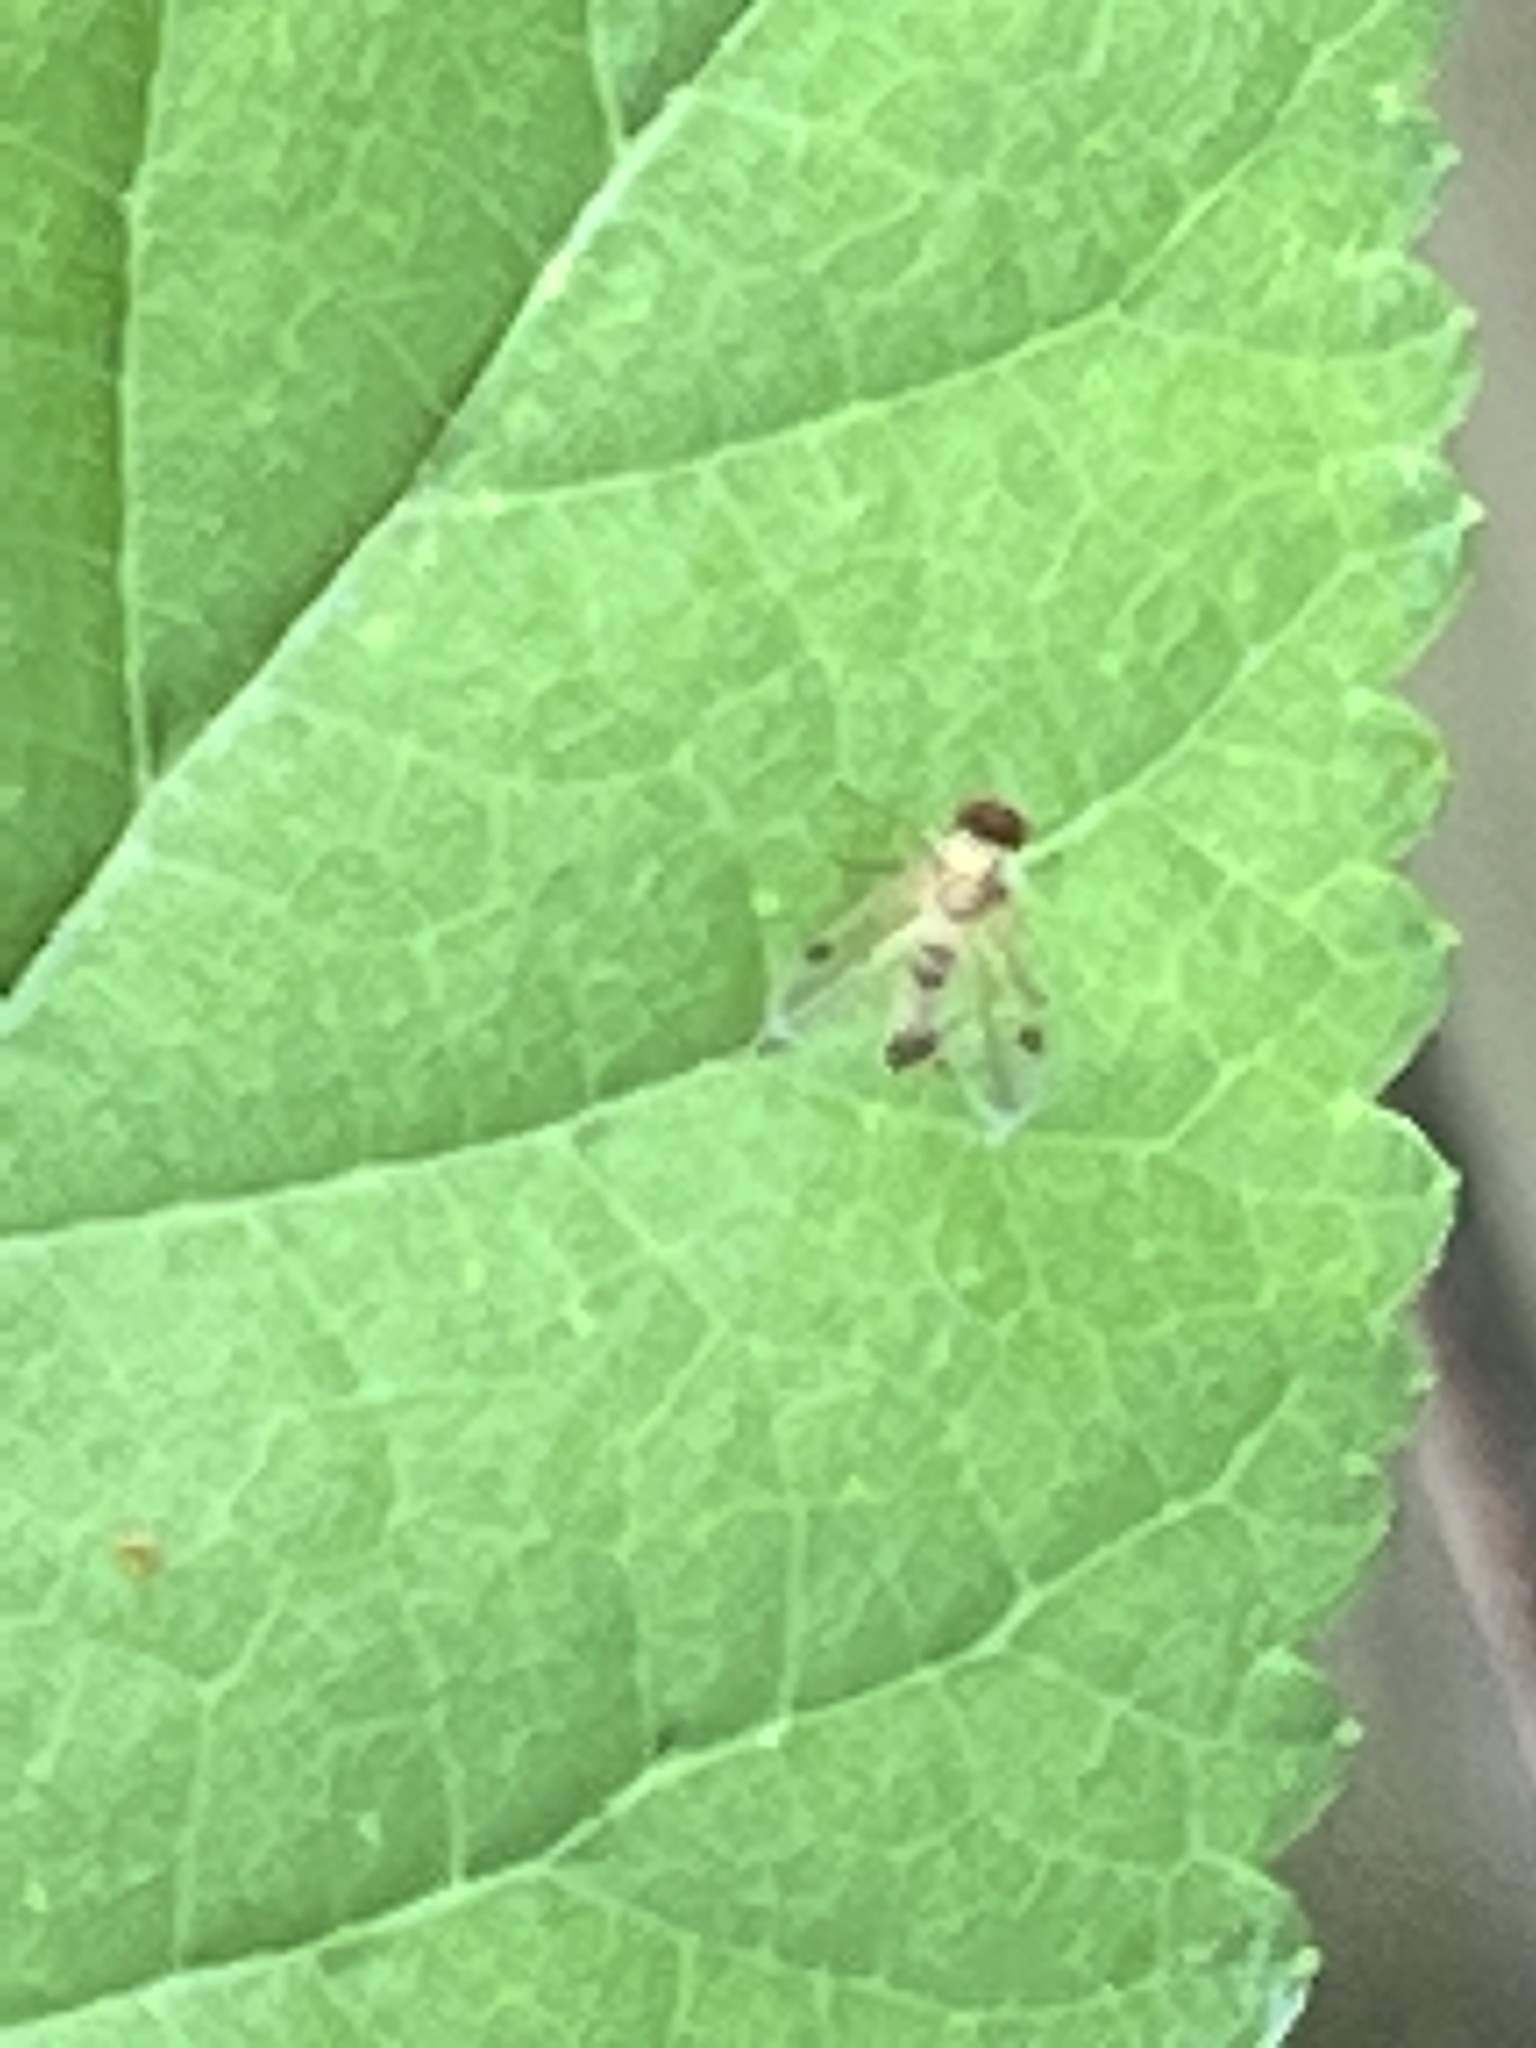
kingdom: Animalia
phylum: Arthropoda
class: Insecta
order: Diptera
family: Rhagionidae
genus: Chrysopilus
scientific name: Chrysopilus modestus
